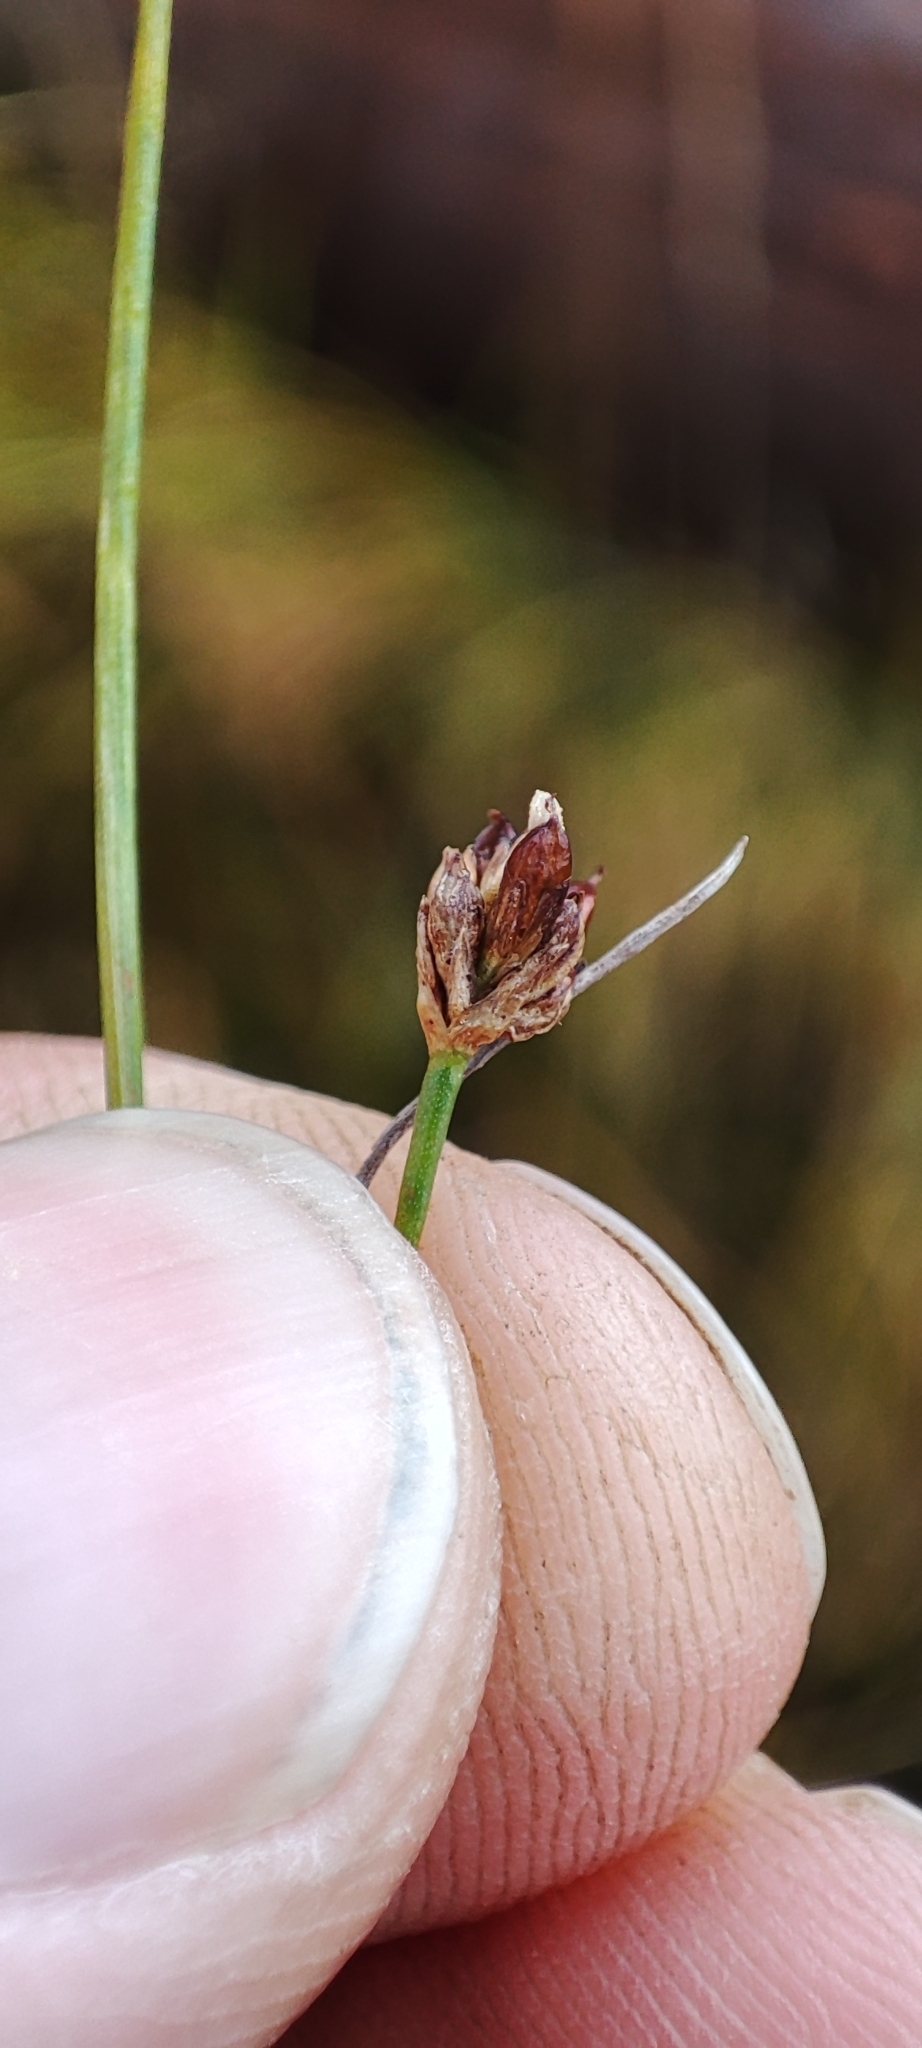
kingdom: Plantae
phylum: Tracheophyta
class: Liliopsida
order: Poales
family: Juncaceae
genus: Juncus
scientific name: Juncus alpinoarticulatus
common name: Alpine rush
